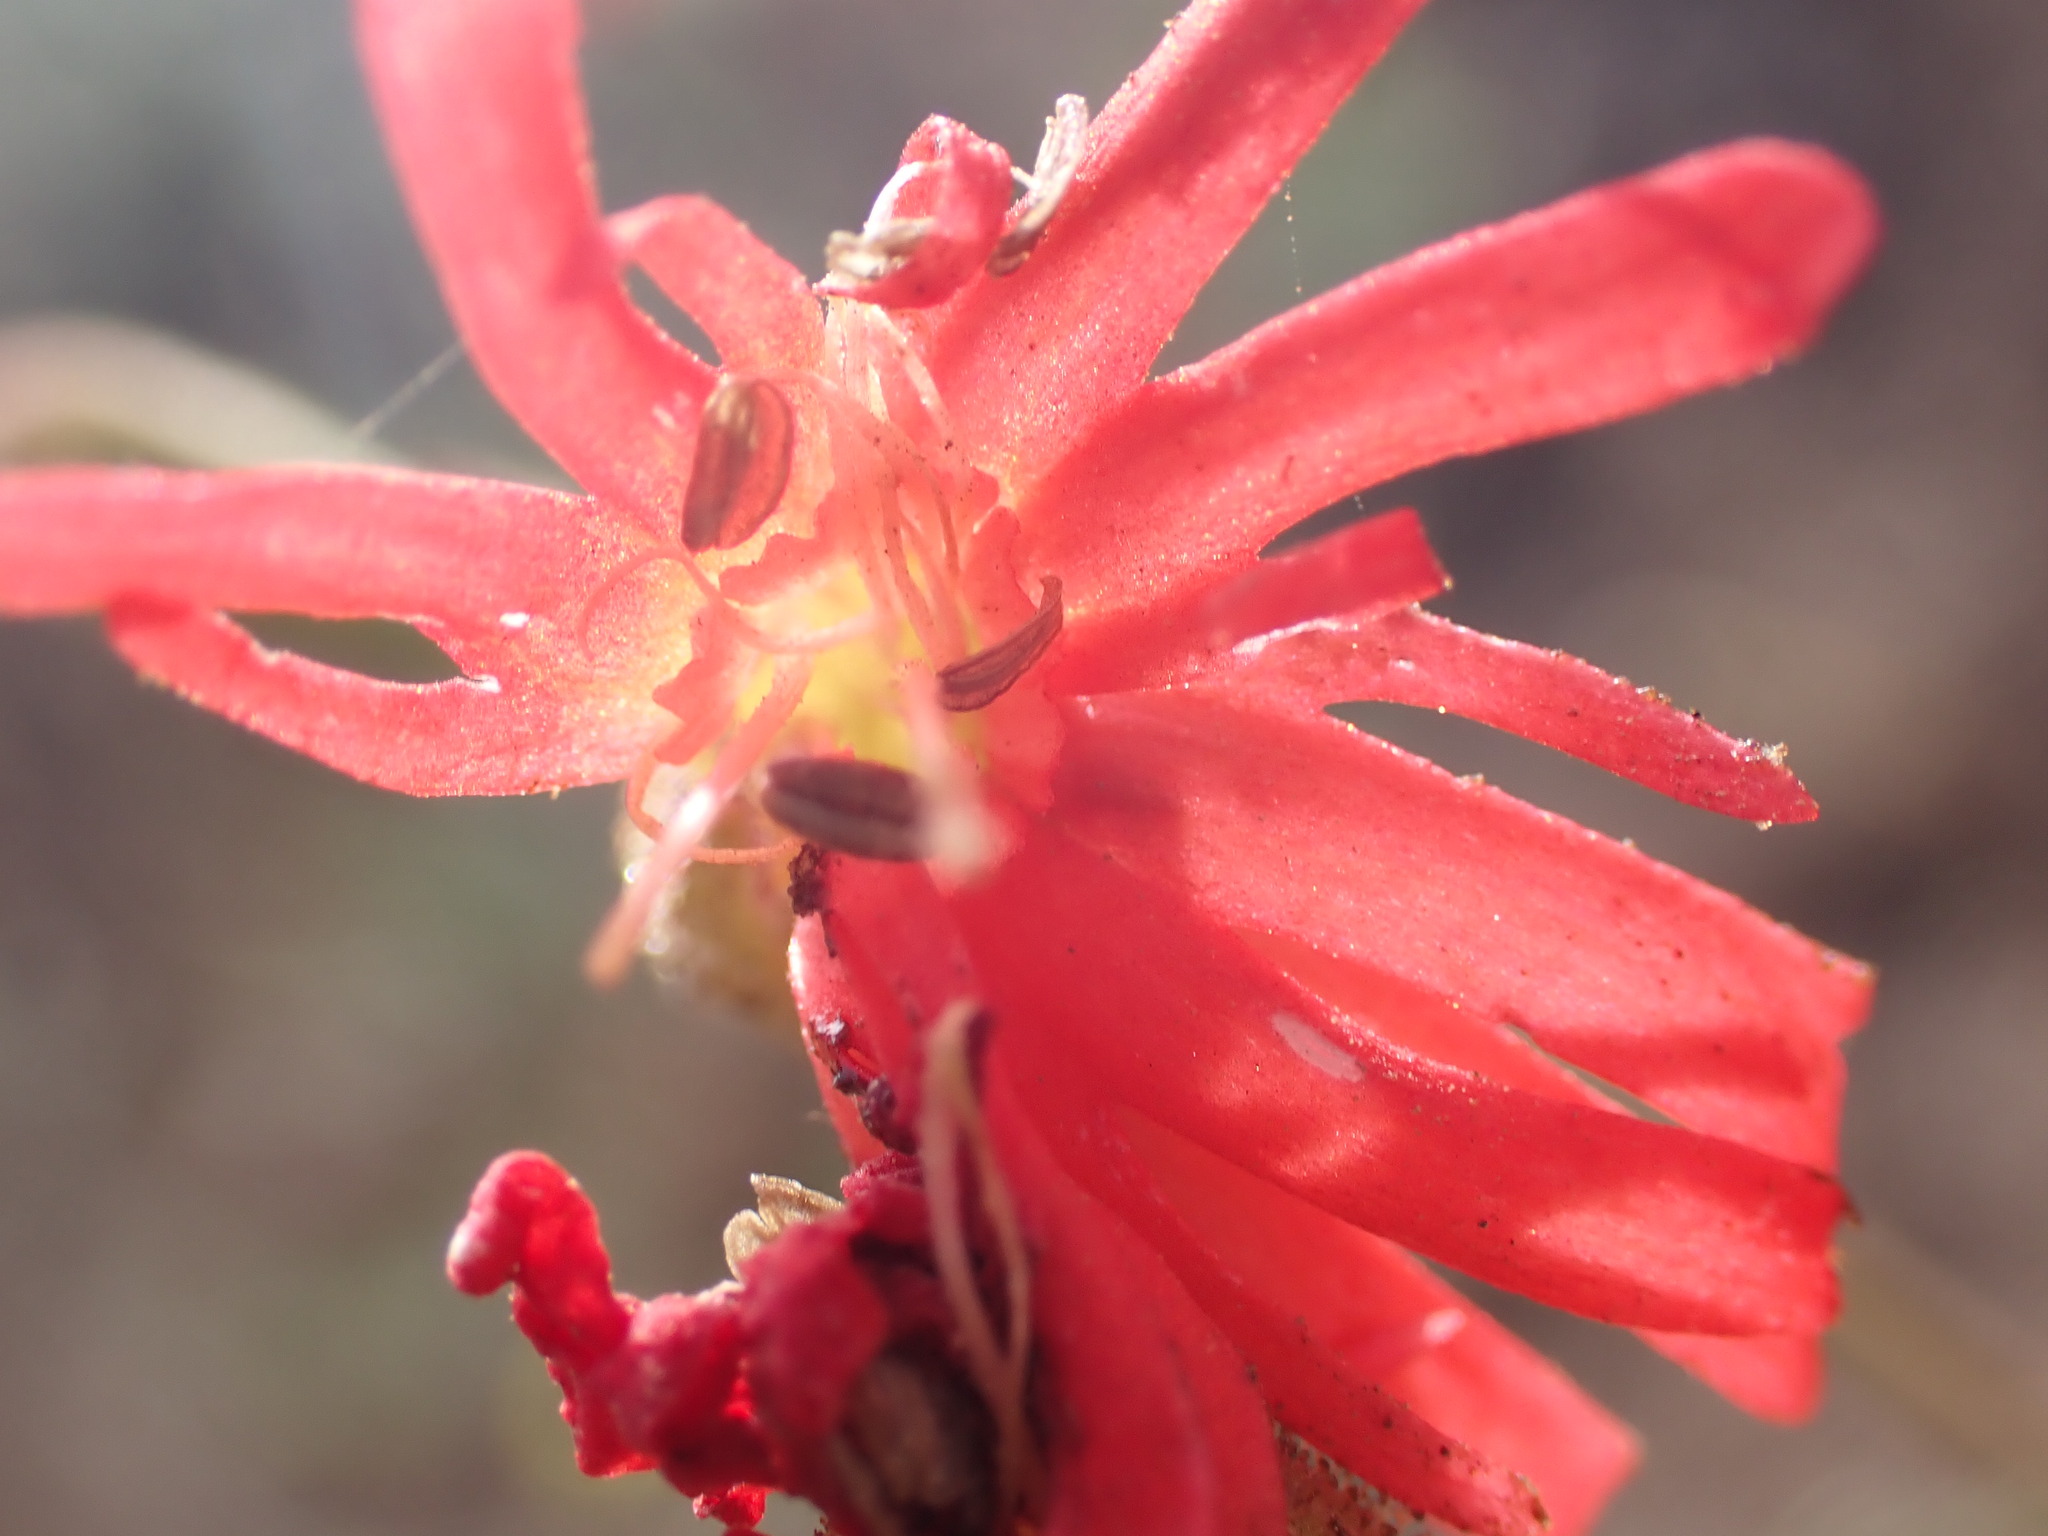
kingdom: Plantae
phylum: Tracheophyta
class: Magnoliopsida
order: Caryophyllales
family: Caryophyllaceae
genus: Silene
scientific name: Silene laciniata
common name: Indian-pink
